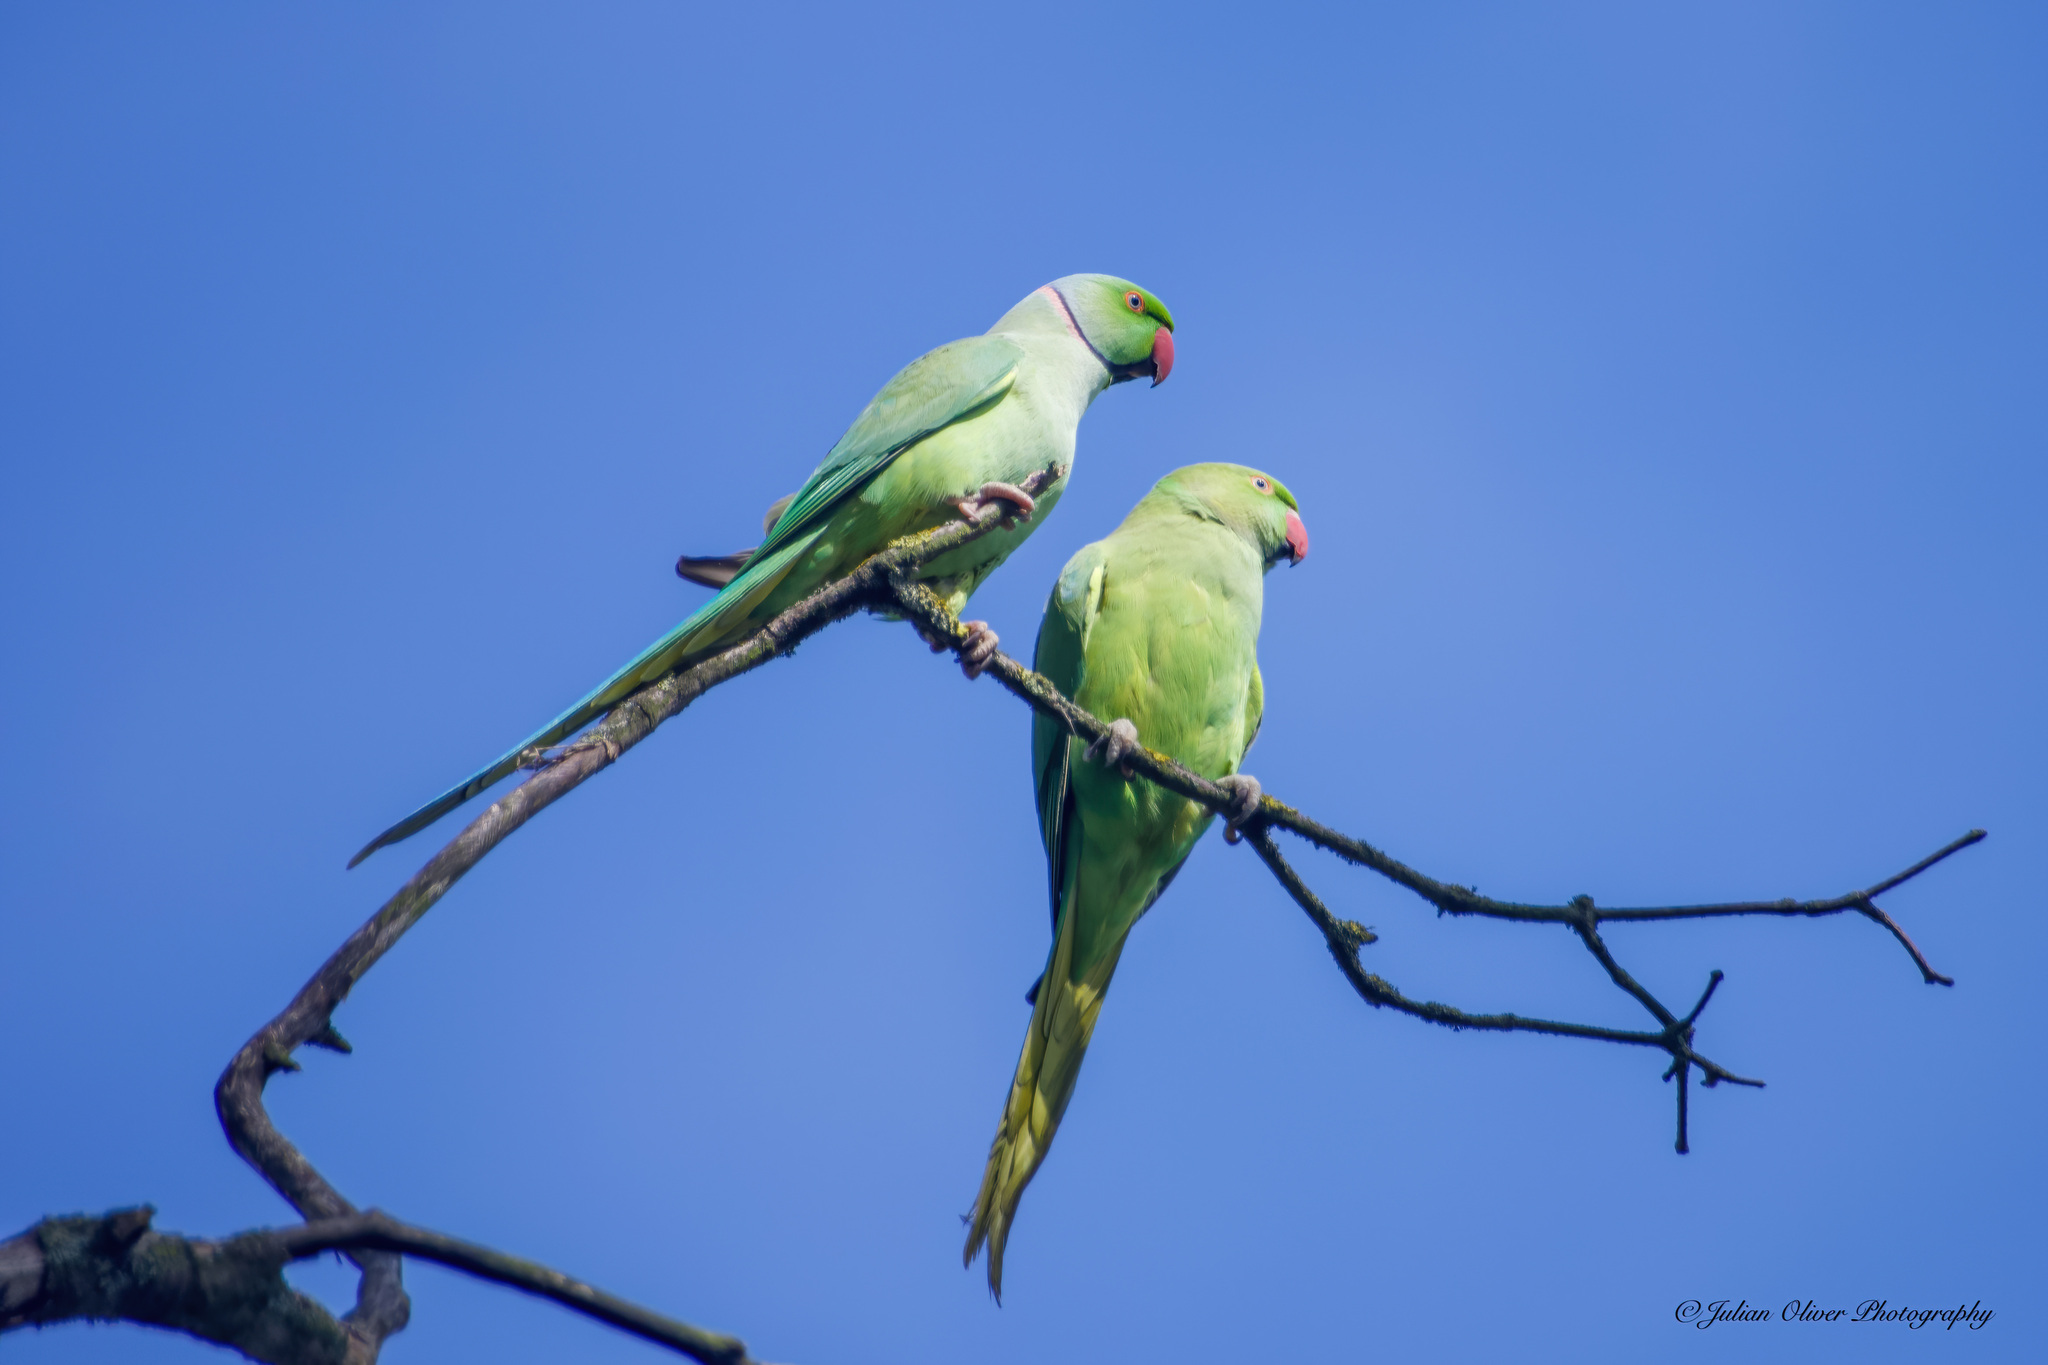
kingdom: Animalia
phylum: Chordata
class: Aves
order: Psittaciformes
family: Psittacidae
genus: Psittacula
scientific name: Psittacula krameri
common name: Rose-ringed parakeet
